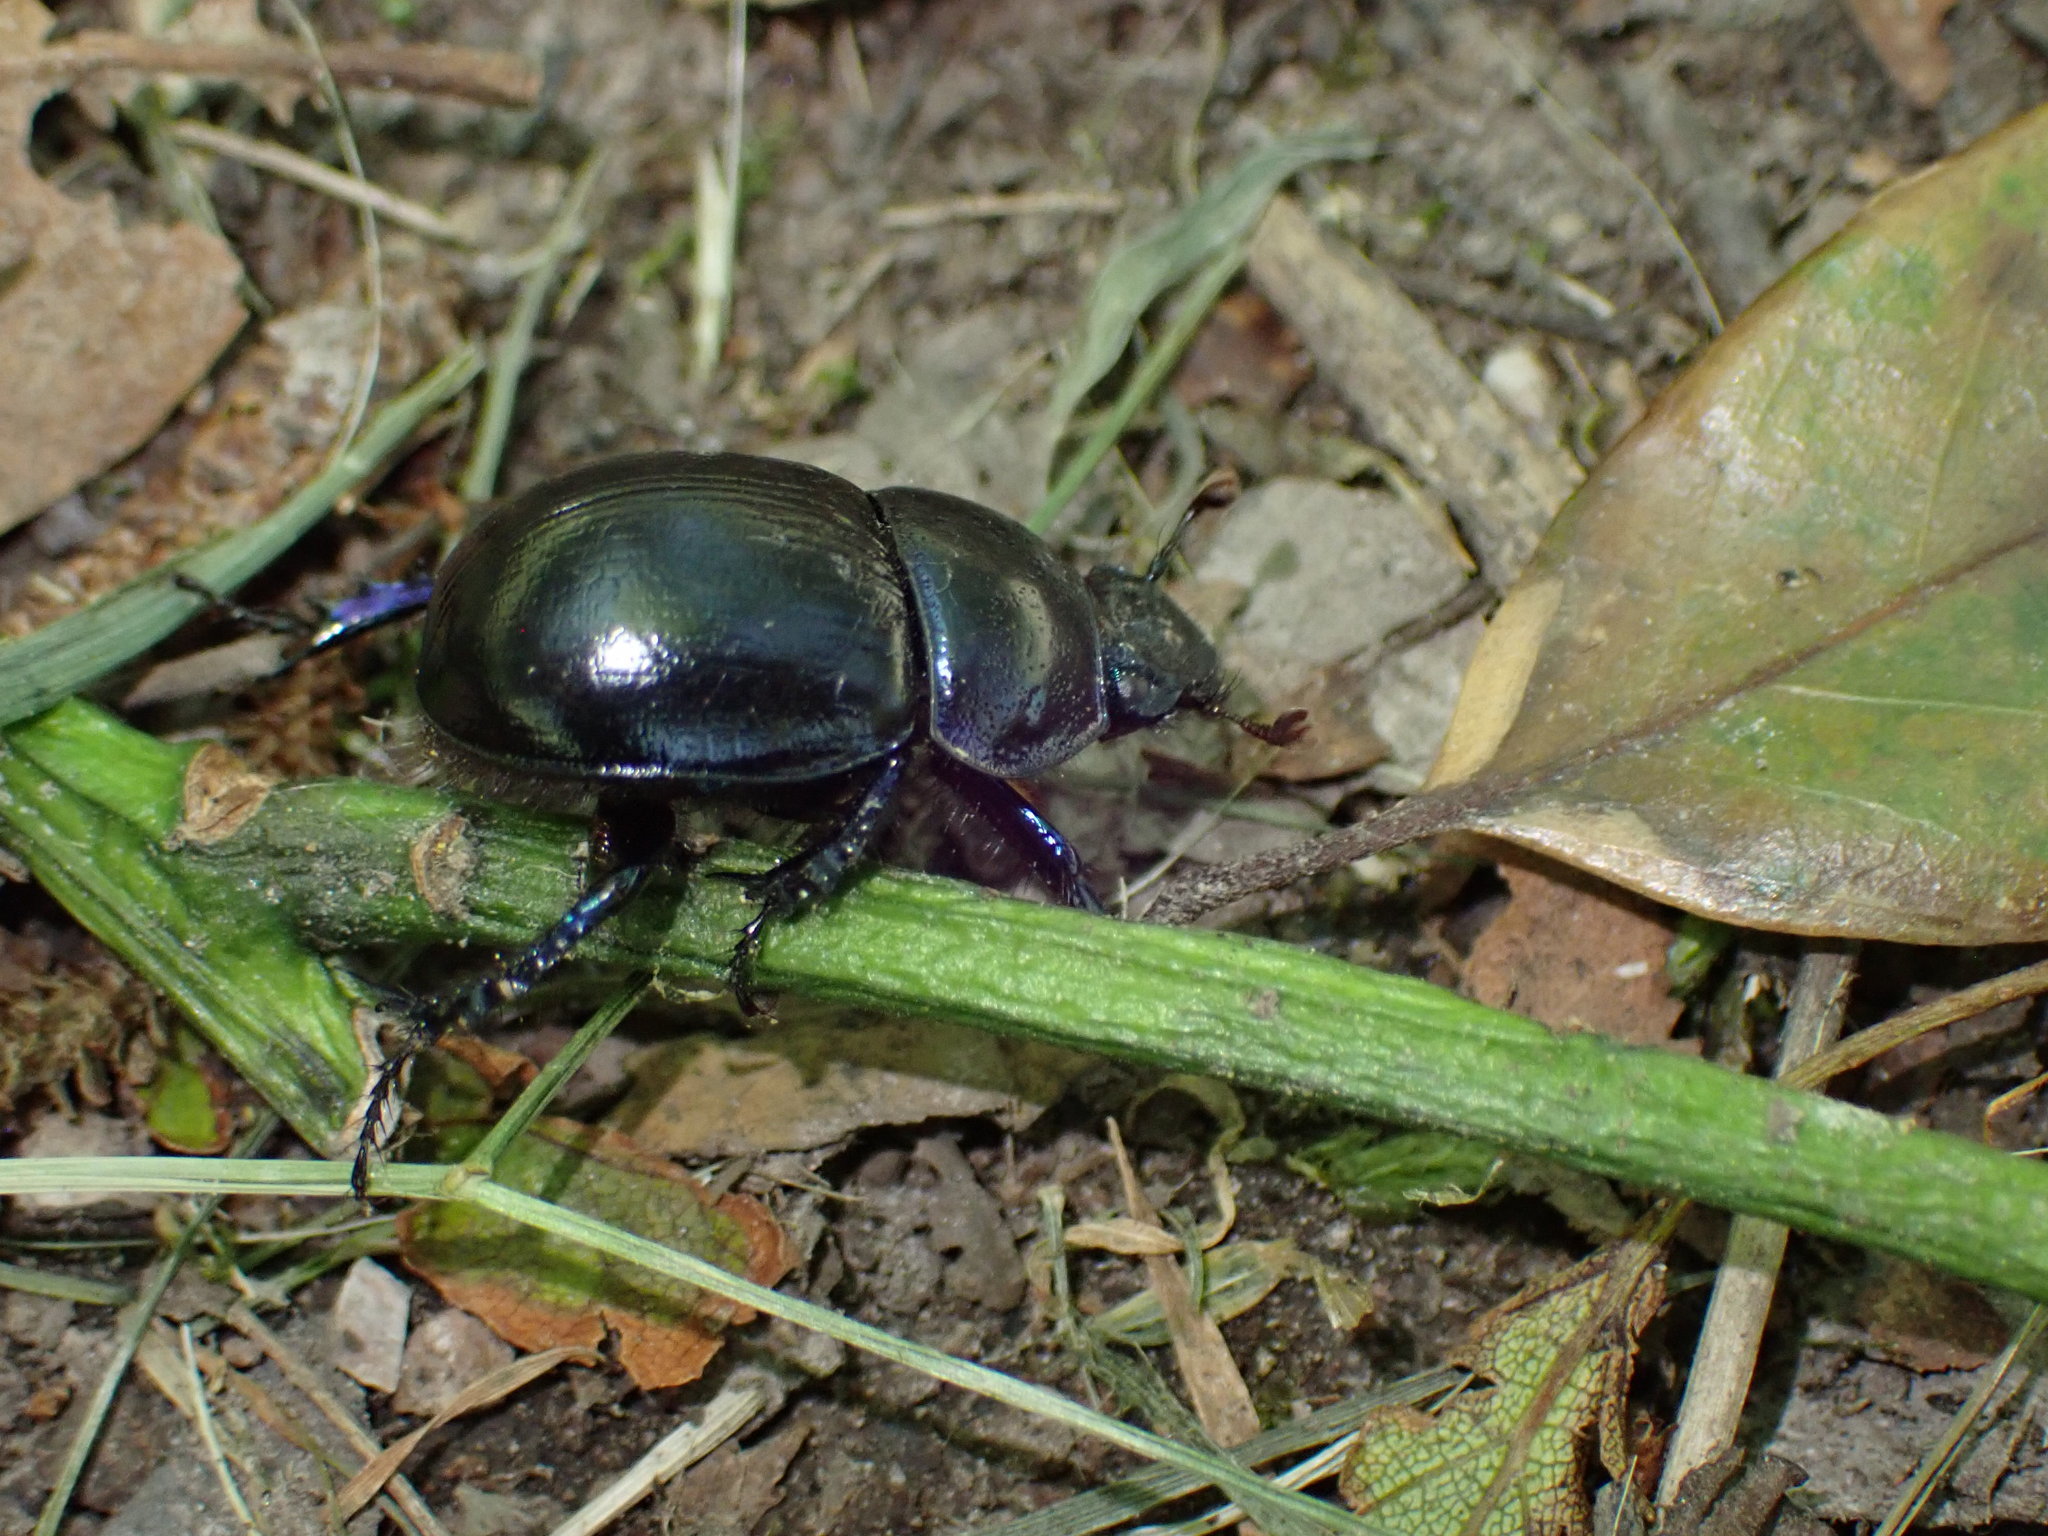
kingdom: Animalia
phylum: Arthropoda
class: Insecta
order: Coleoptera
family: Geotrupidae
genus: Anoplotrupes
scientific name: Anoplotrupes stercorosus
